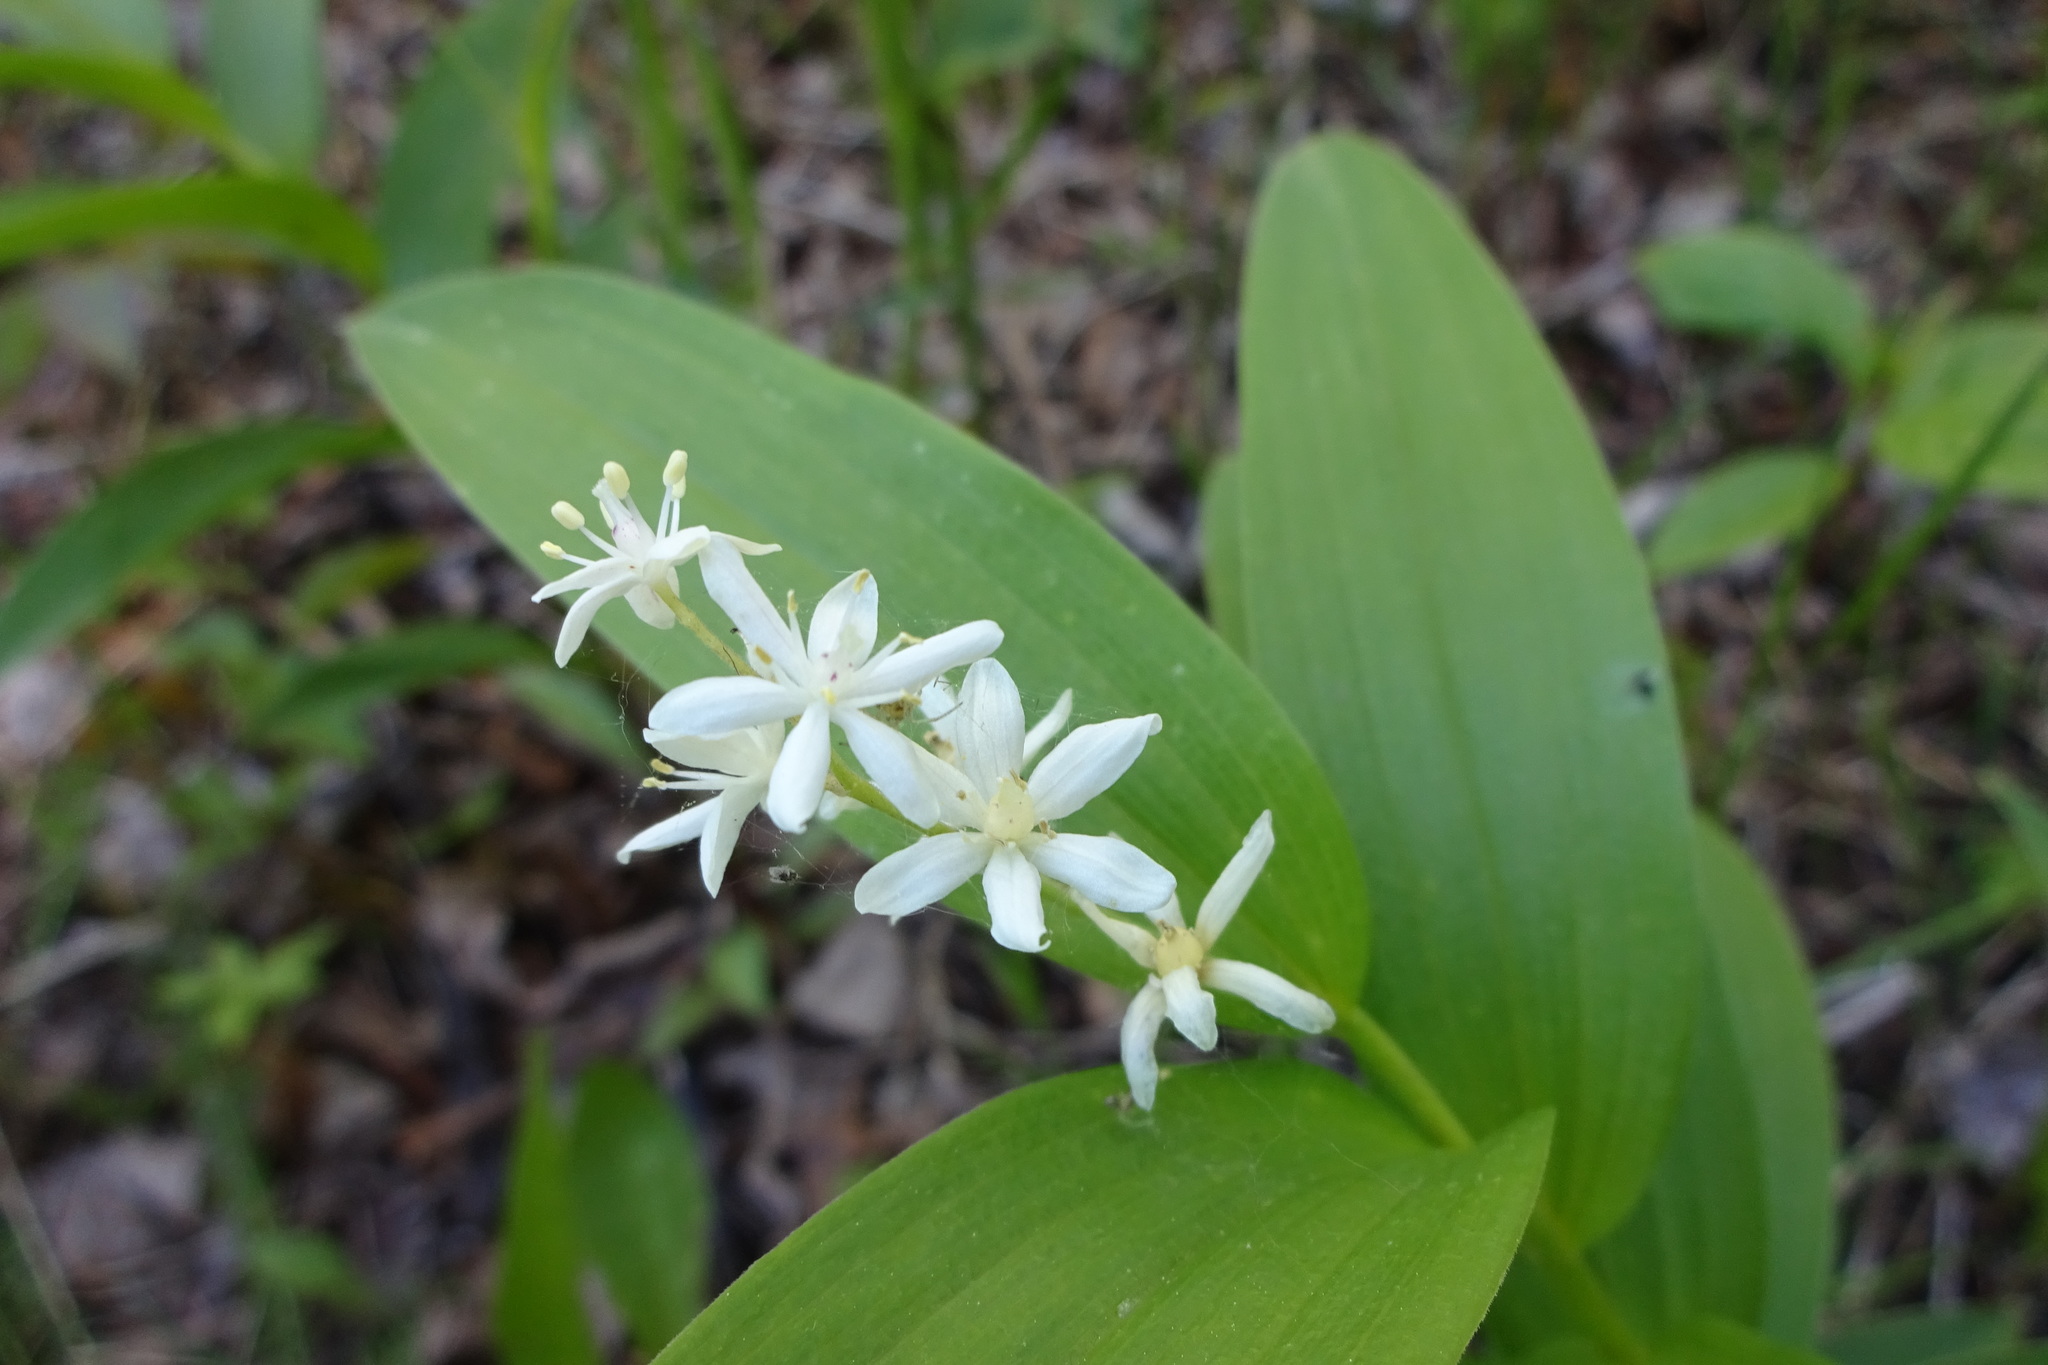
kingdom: Plantae
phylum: Tracheophyta
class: Liliopsida
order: Asparagales
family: Asparagaceae
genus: Maianthemum
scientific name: Maianthemum stellatum
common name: Little false solomon's seal
